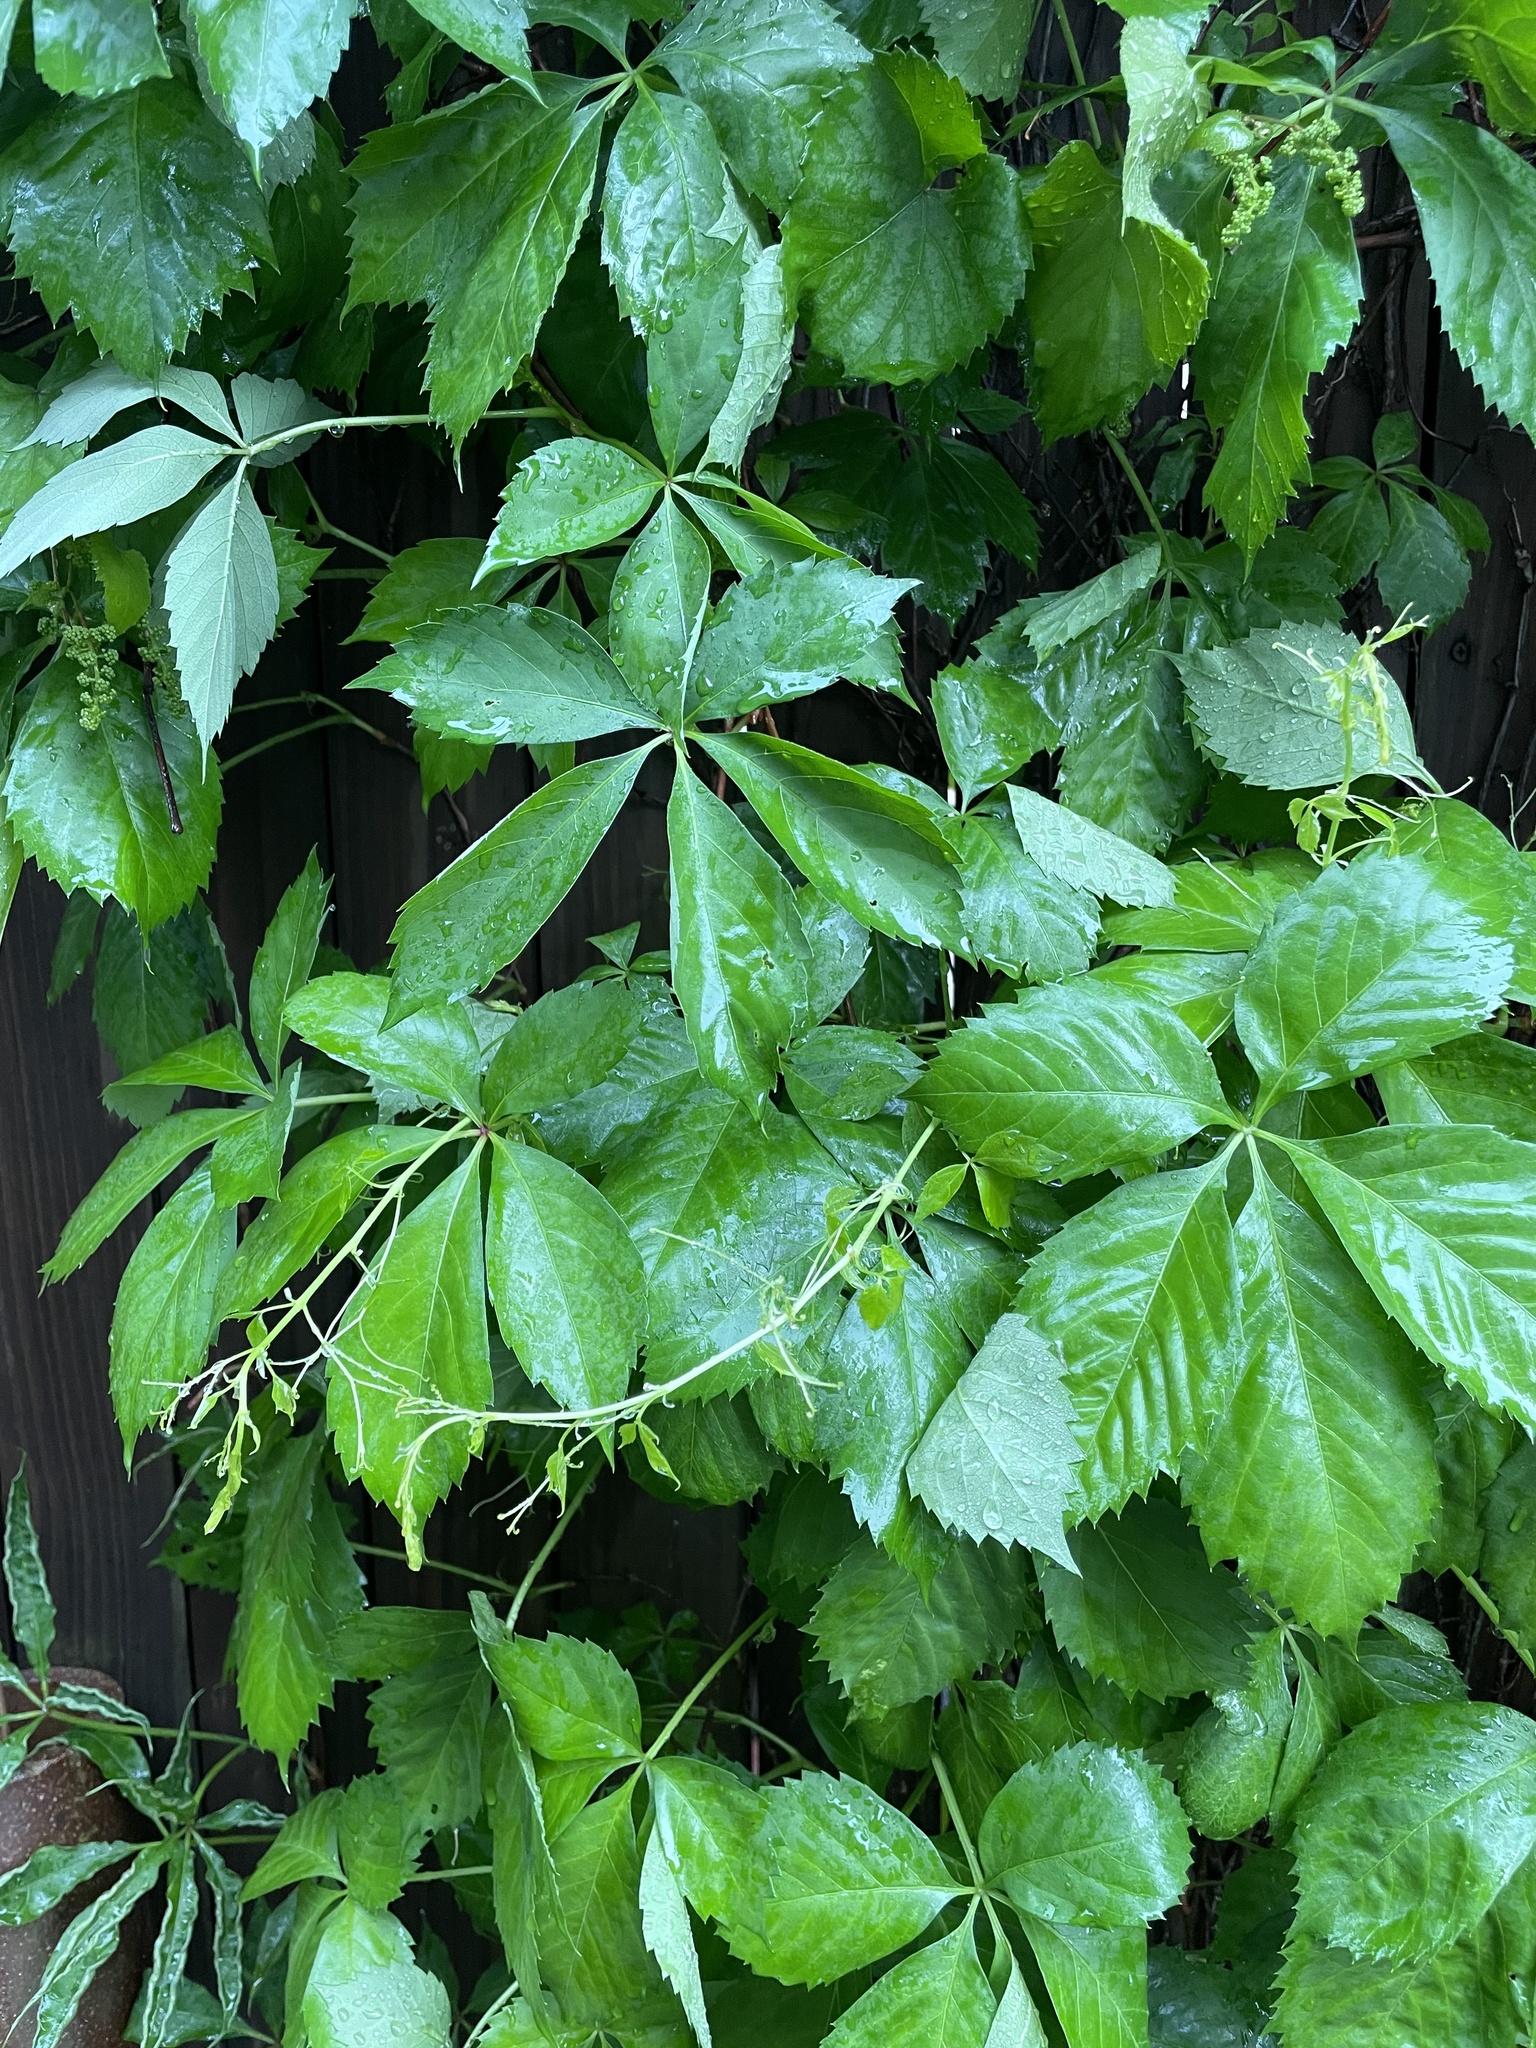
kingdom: Plantae
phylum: Tracheophyta
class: Magnoliopsida
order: Vitales
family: Vitaceae
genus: Parthenocissus
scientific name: Parthenocissus quinquefolia
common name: Virginia-creeper
